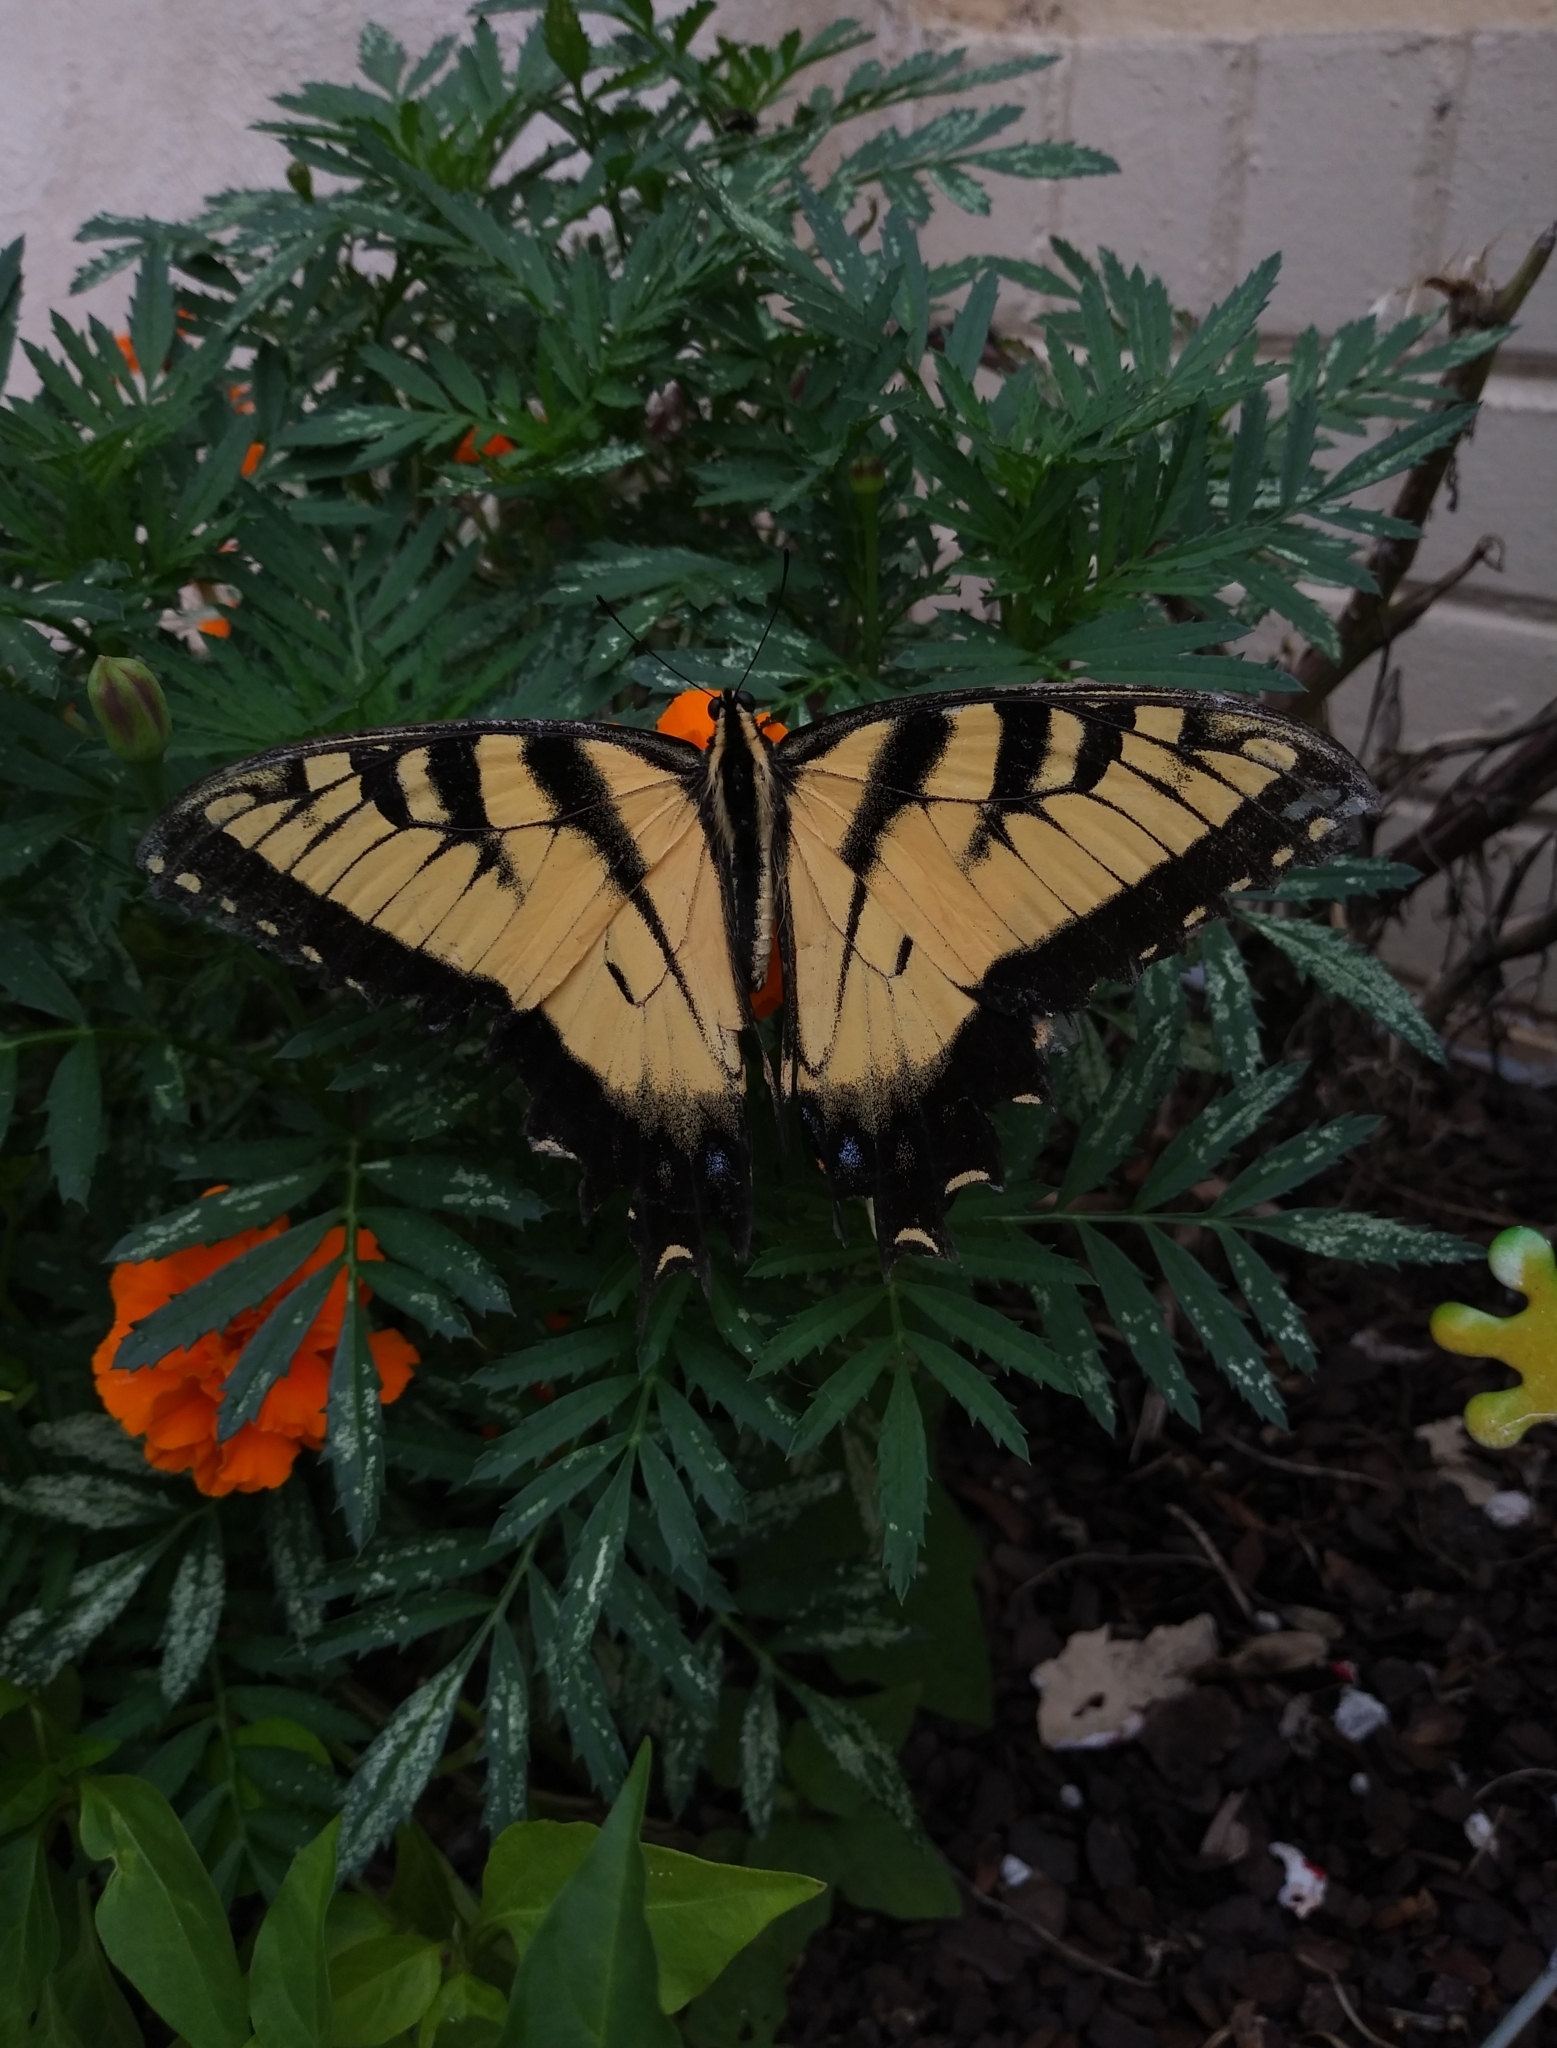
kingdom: Animalia
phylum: Arthropoda
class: Insecta
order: Lepidoptera
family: Papilionidae
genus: Papilio
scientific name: Papilio glaucus
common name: Tiger swallowtail
